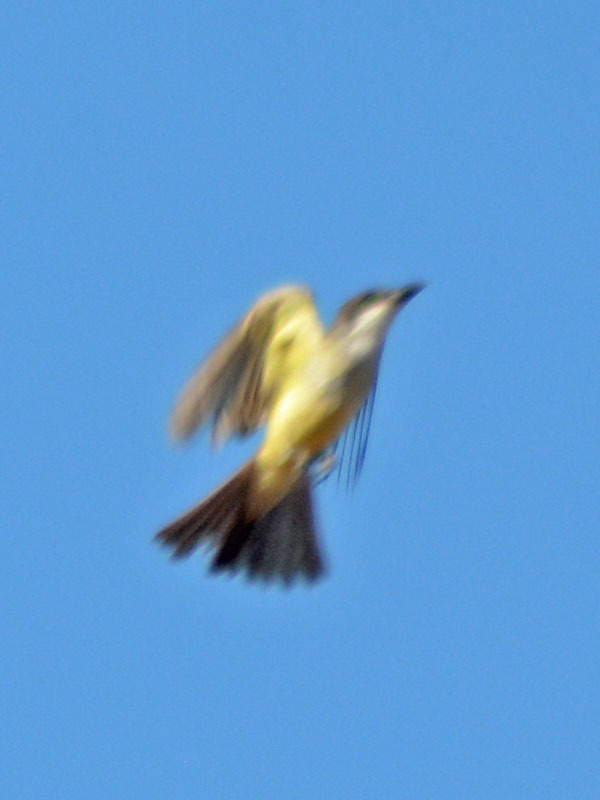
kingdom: Animalia
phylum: Chordata
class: Aves
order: Passeriformes
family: Tyrannidae
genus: Tyrannus
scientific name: Tyrannus crassirostris
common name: Thick-billed kingbird
